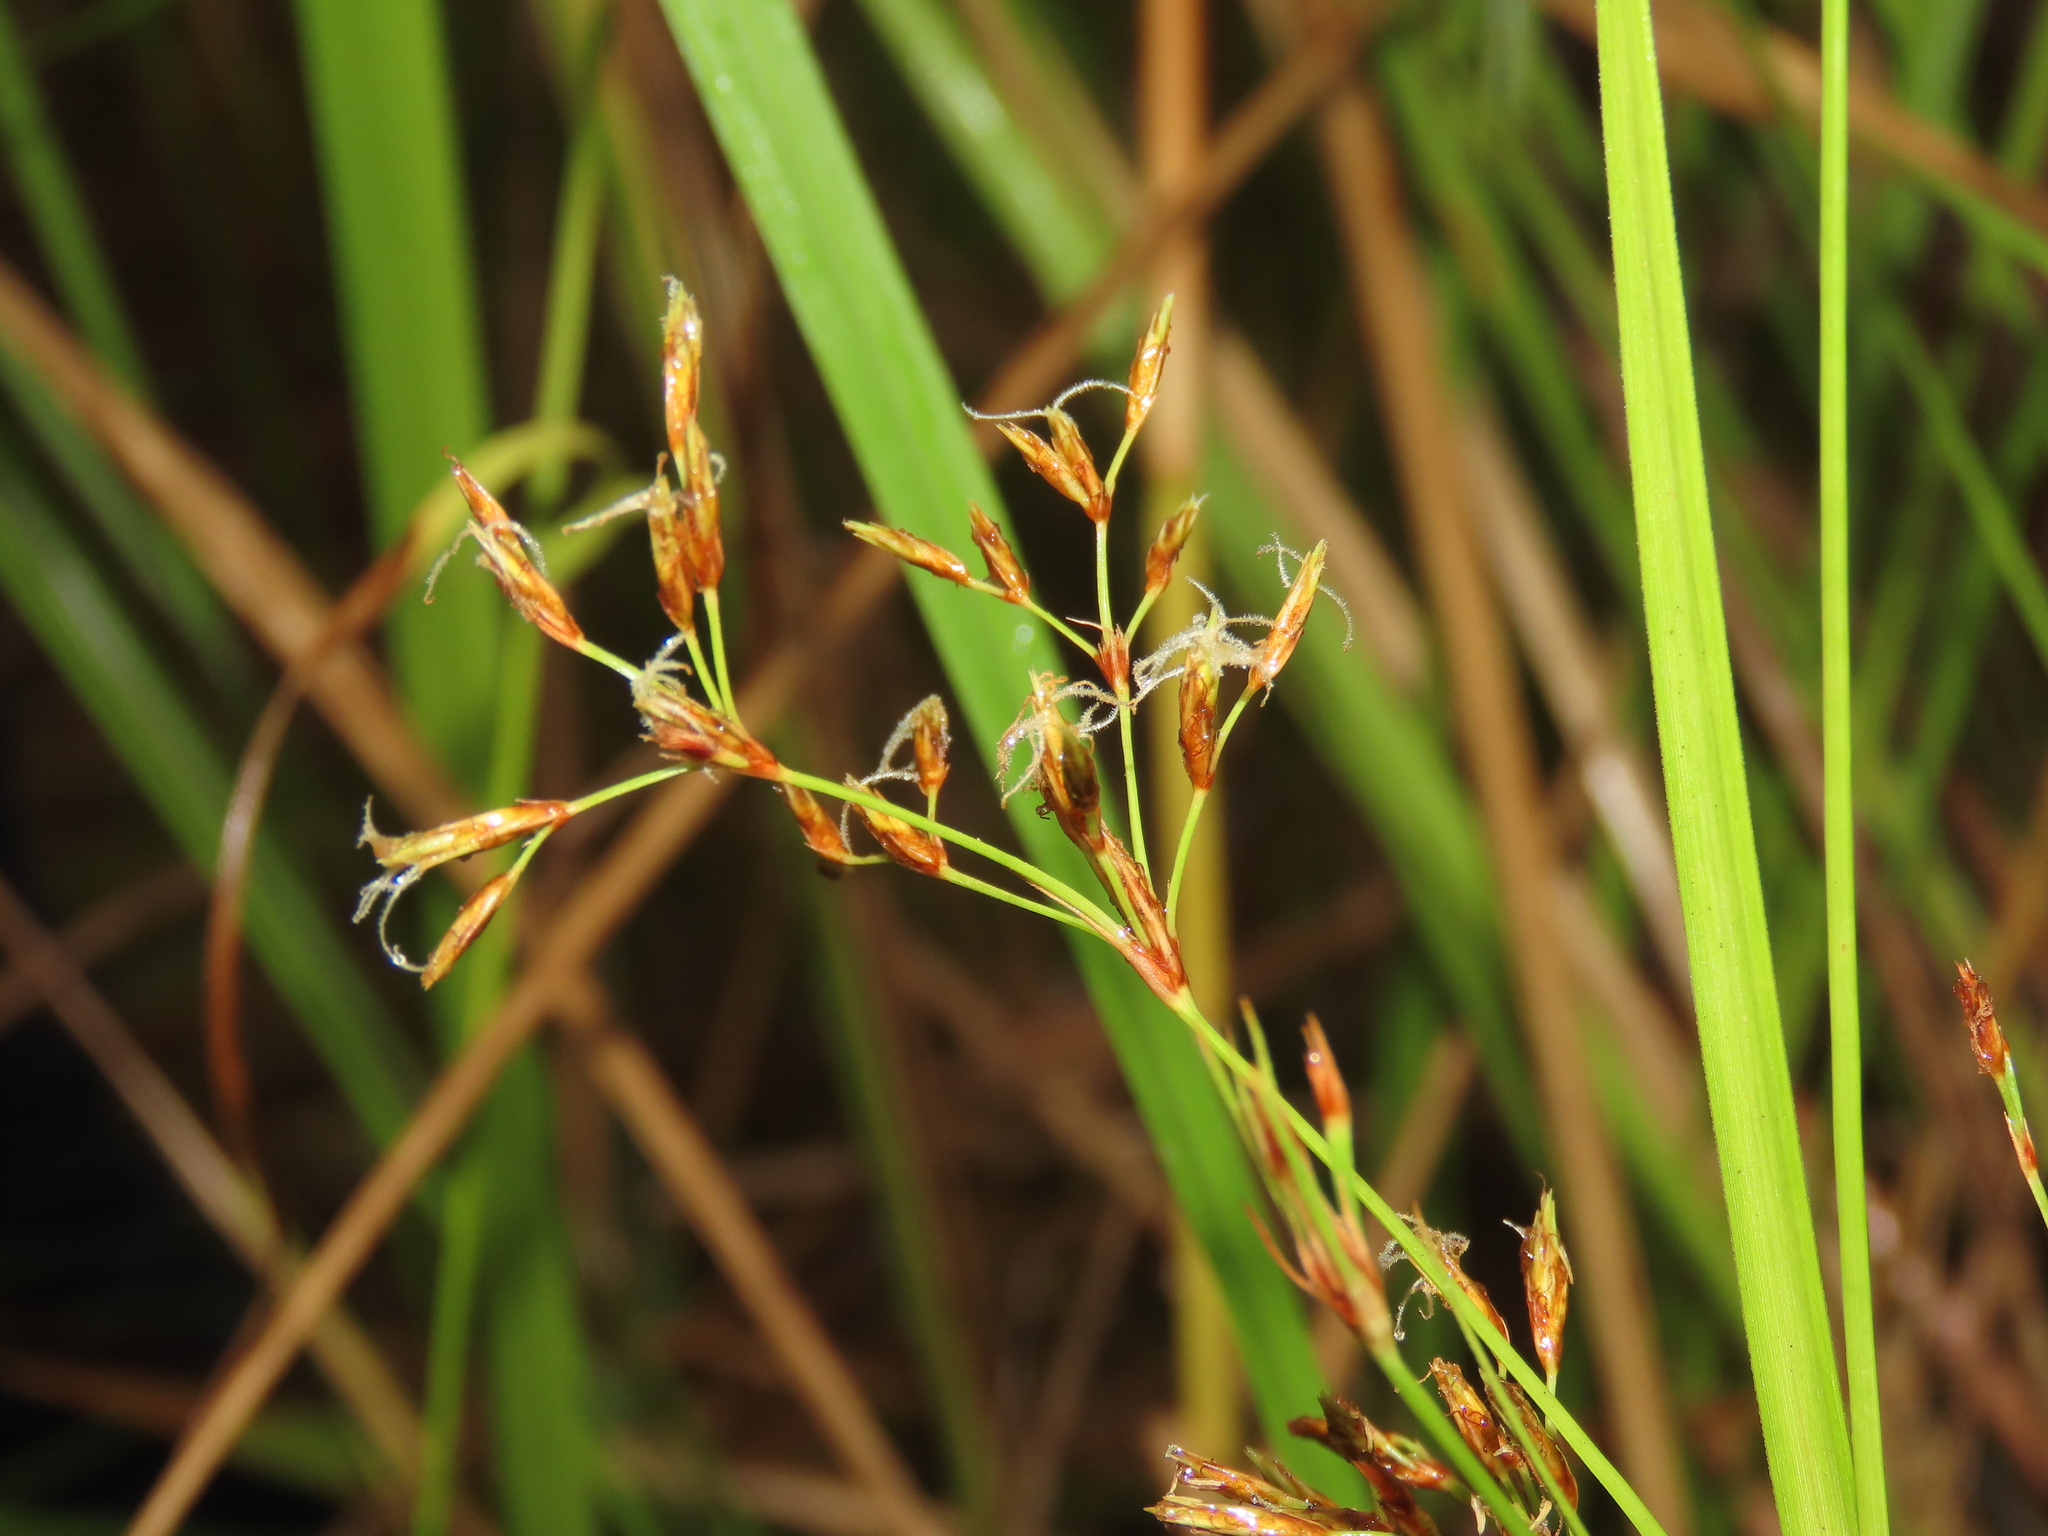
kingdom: Plantae
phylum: Tracheophyta
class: Liliopsida
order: Poales
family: Cyperaceae
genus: Fimbristylis
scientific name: Fimbristylis complanata
